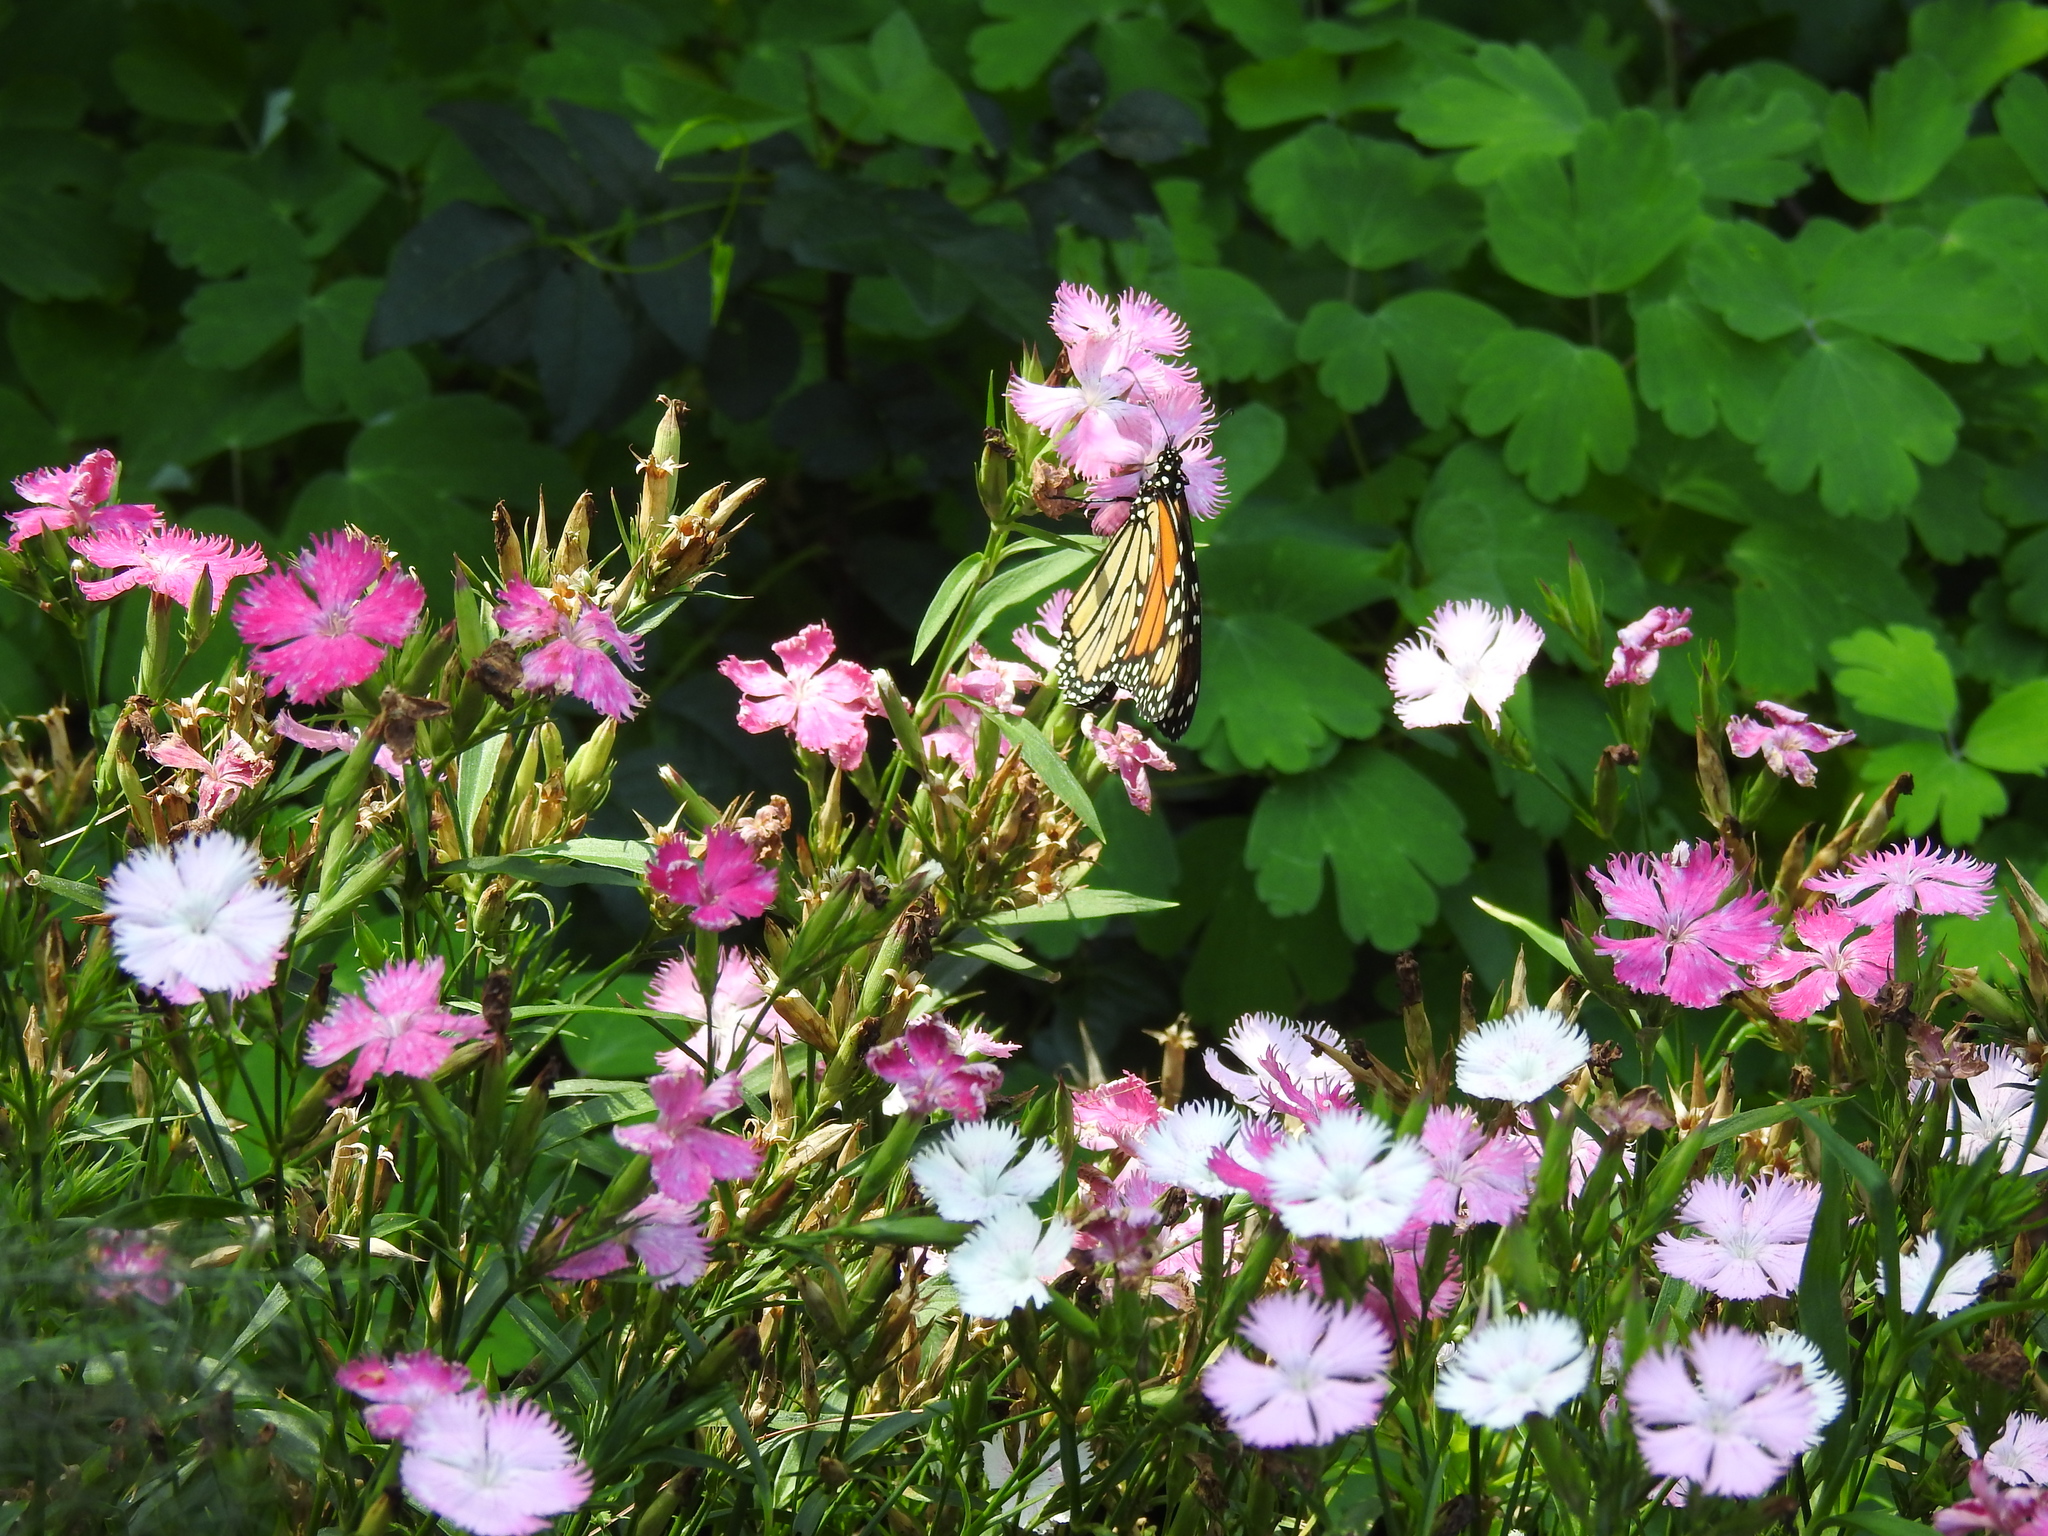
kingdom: Animalia
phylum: Arthropoda
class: Insecta
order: Lepidoptera
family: Nymphalidae
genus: Danaus
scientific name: Danaus plexippus
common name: Monarch
